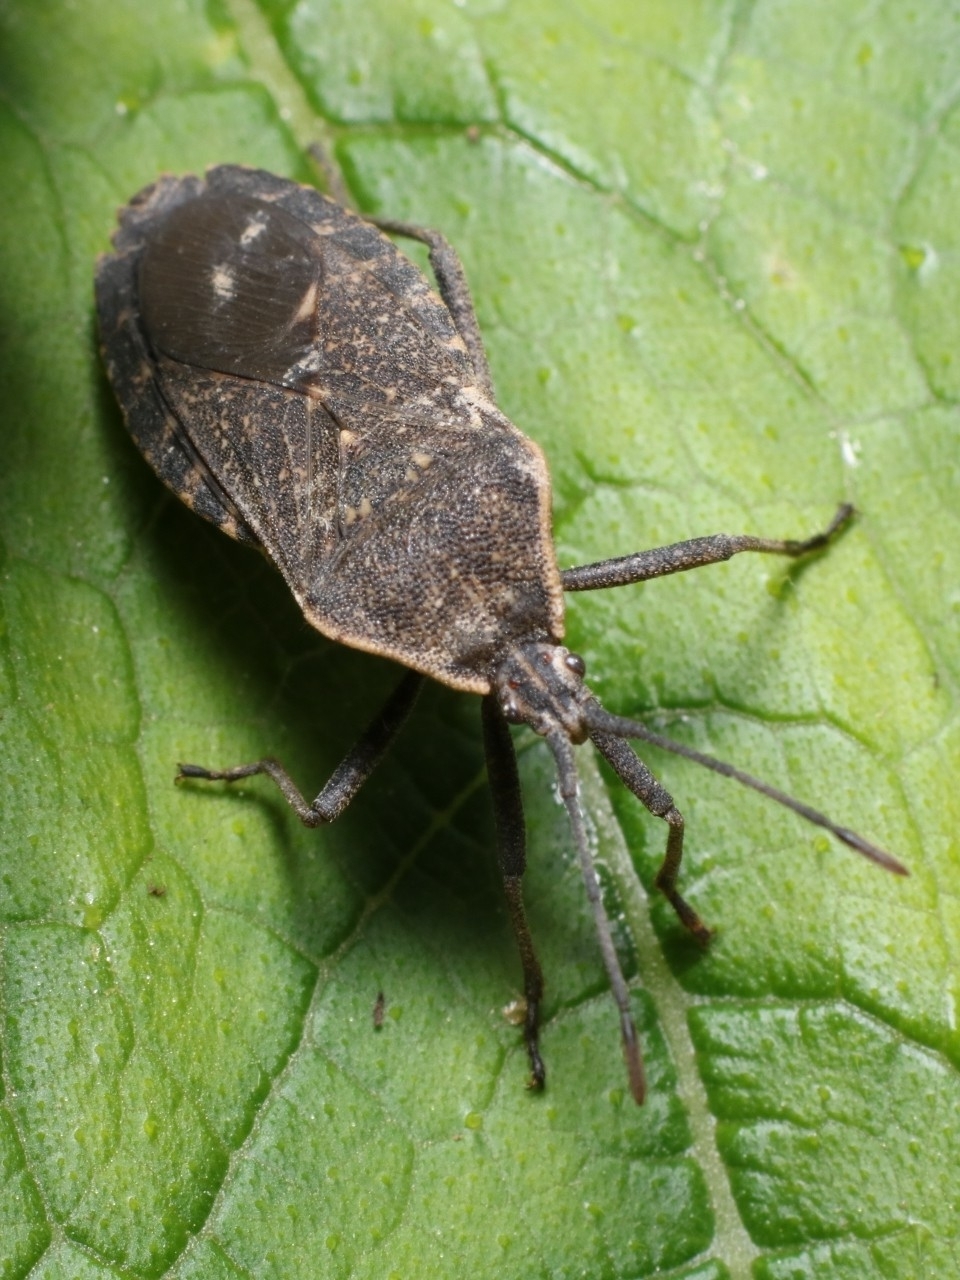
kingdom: Animalia
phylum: Arthropoda
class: Insecta
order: Hemiptera
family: Coreidae
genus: Anasa
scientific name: Anasa tristis
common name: Squash bug
